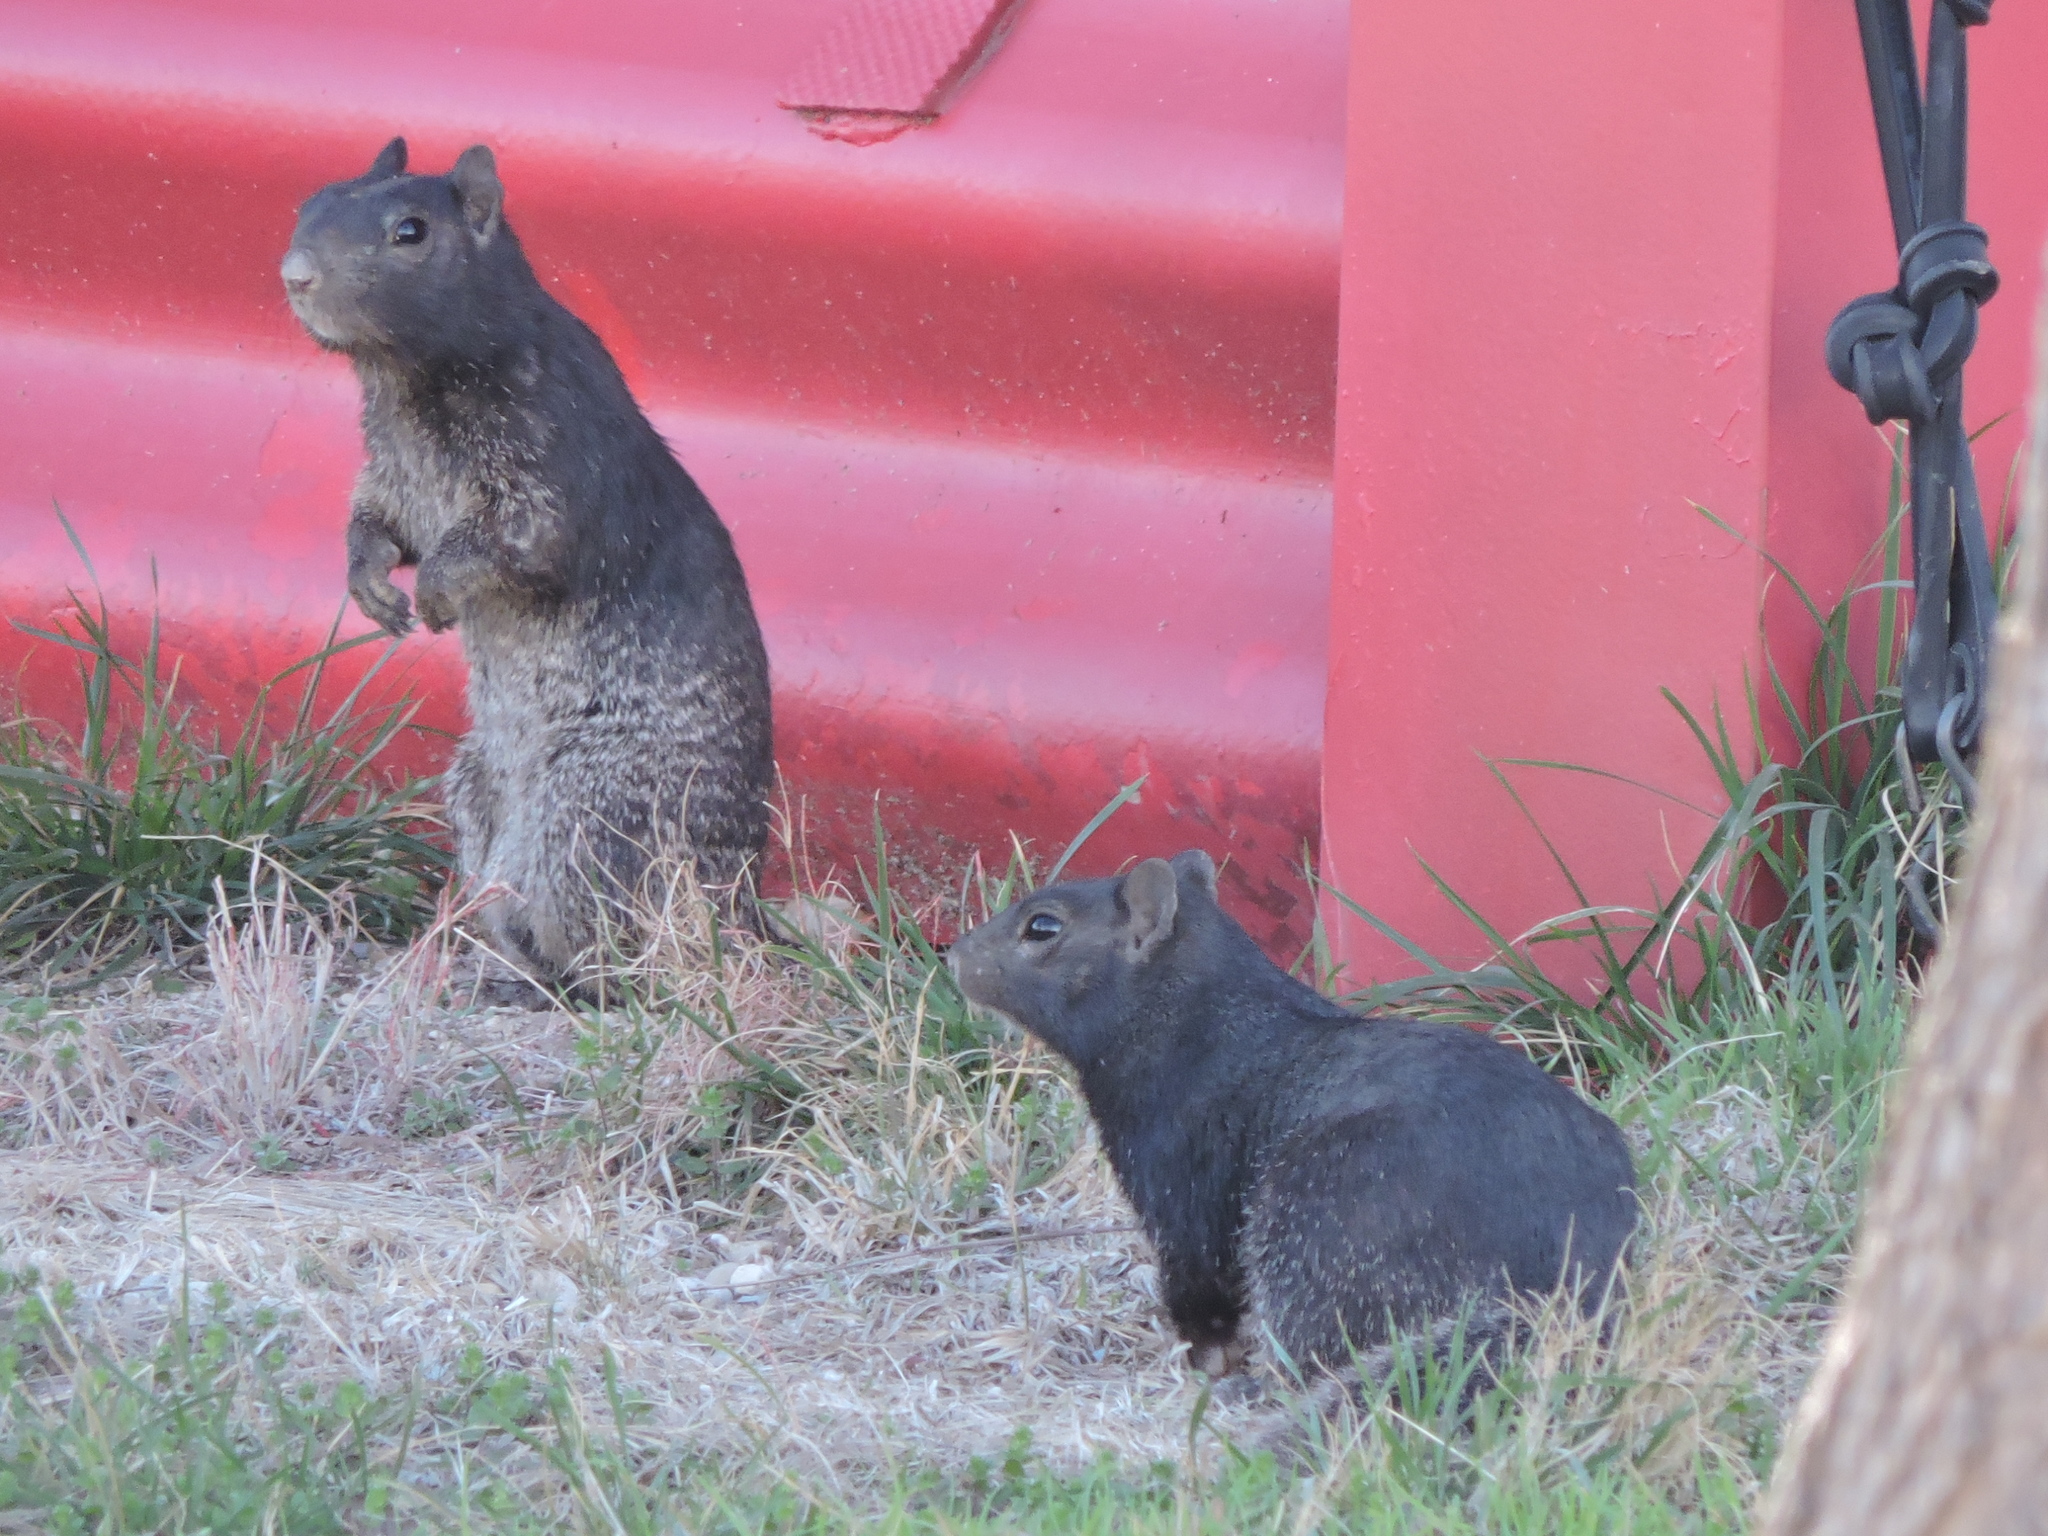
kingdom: Animalia
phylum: Chordata
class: Mammalia
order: Rodentia
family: Sciuridae
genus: Otospermophilus
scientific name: Otospermophilus variegatus
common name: Rock squirrel
